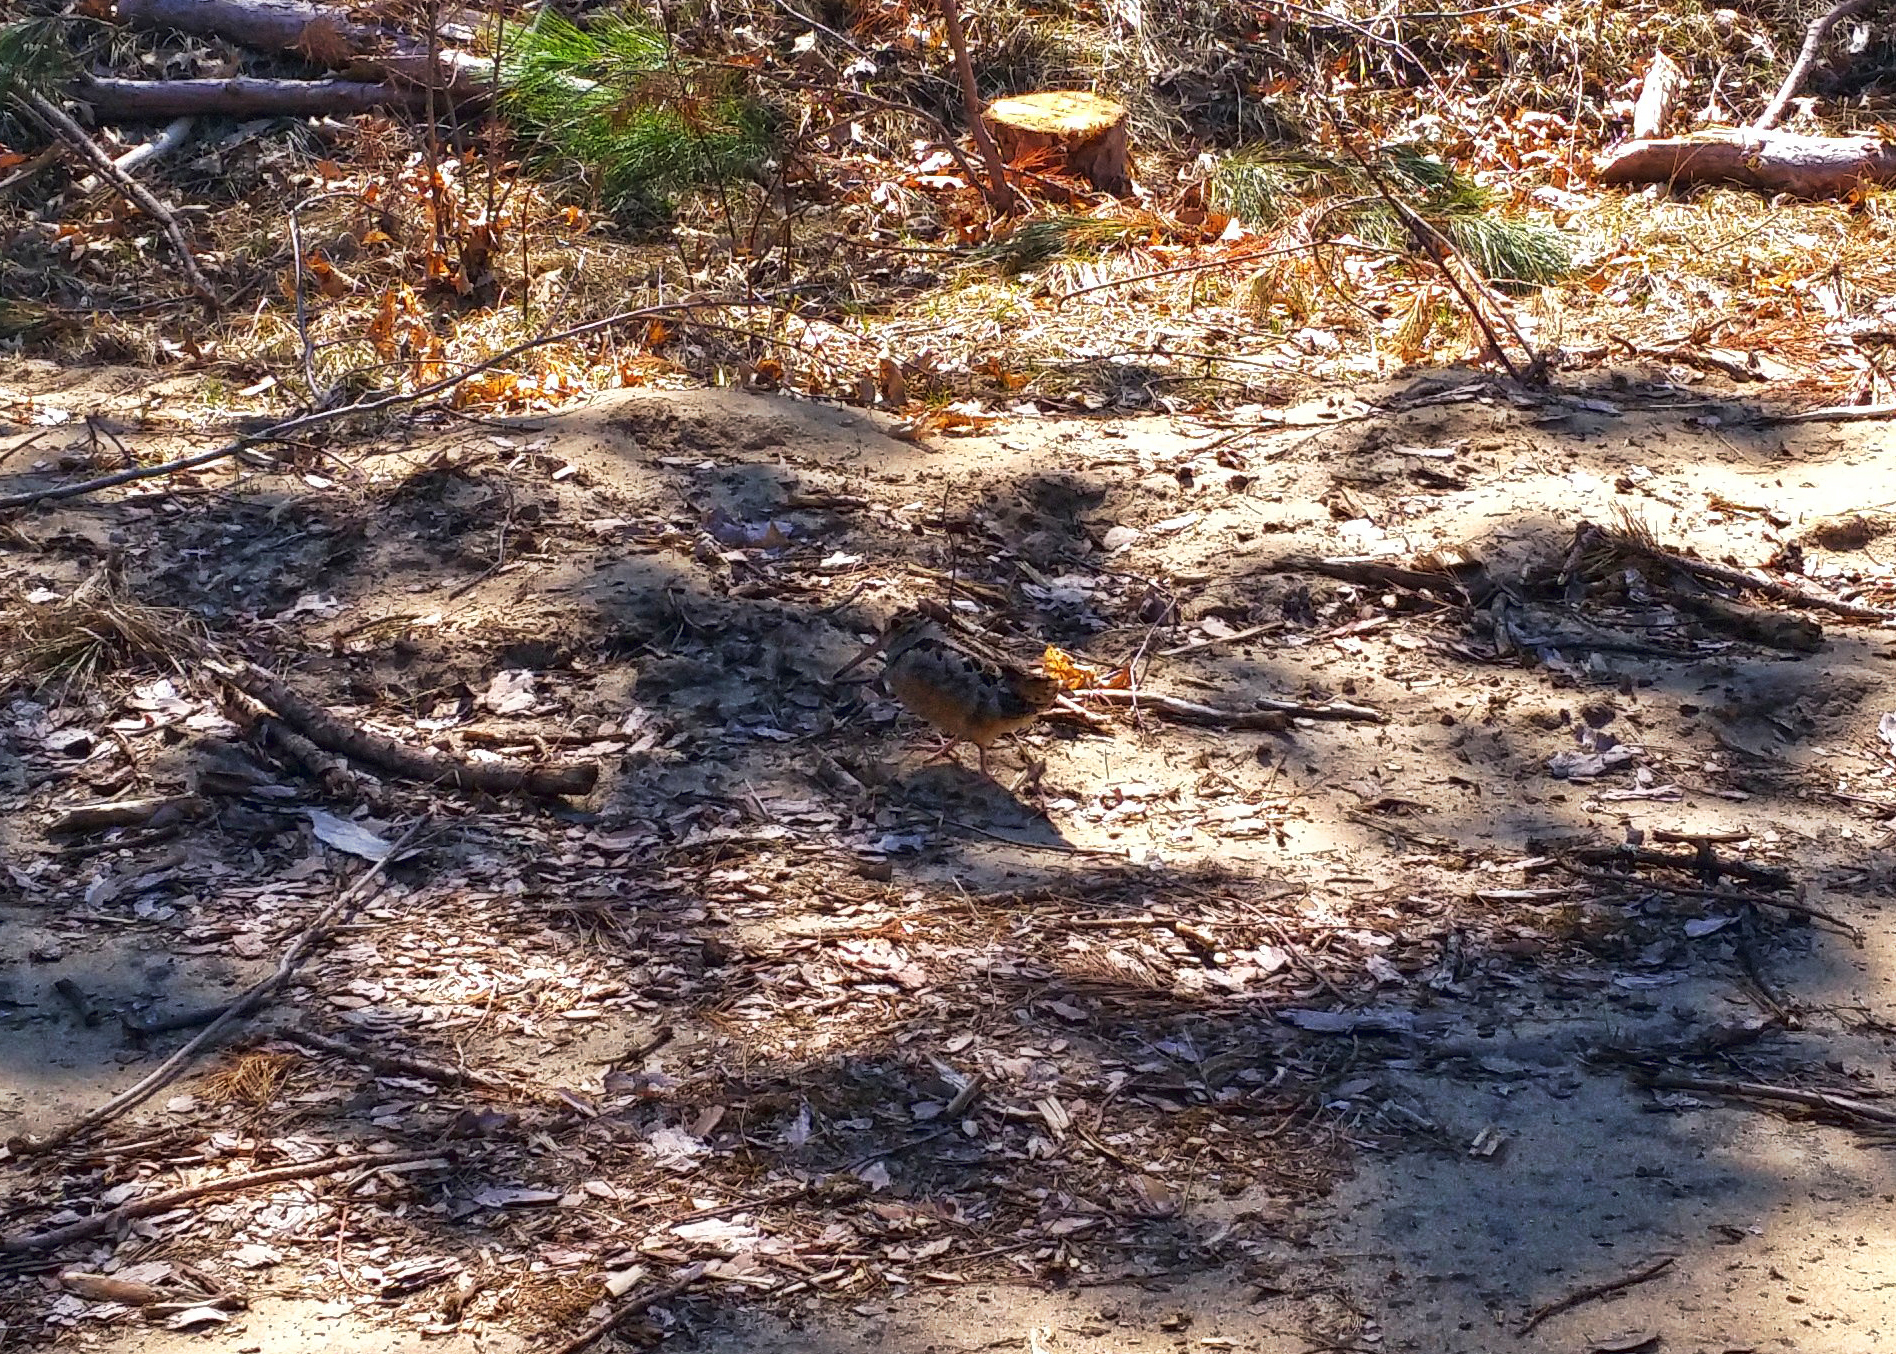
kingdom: Animalia
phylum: Chordata
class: Aves
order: Charadriiformes
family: Scolopacidae
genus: Scolopax
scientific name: Scolopax minor
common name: American woodcock
